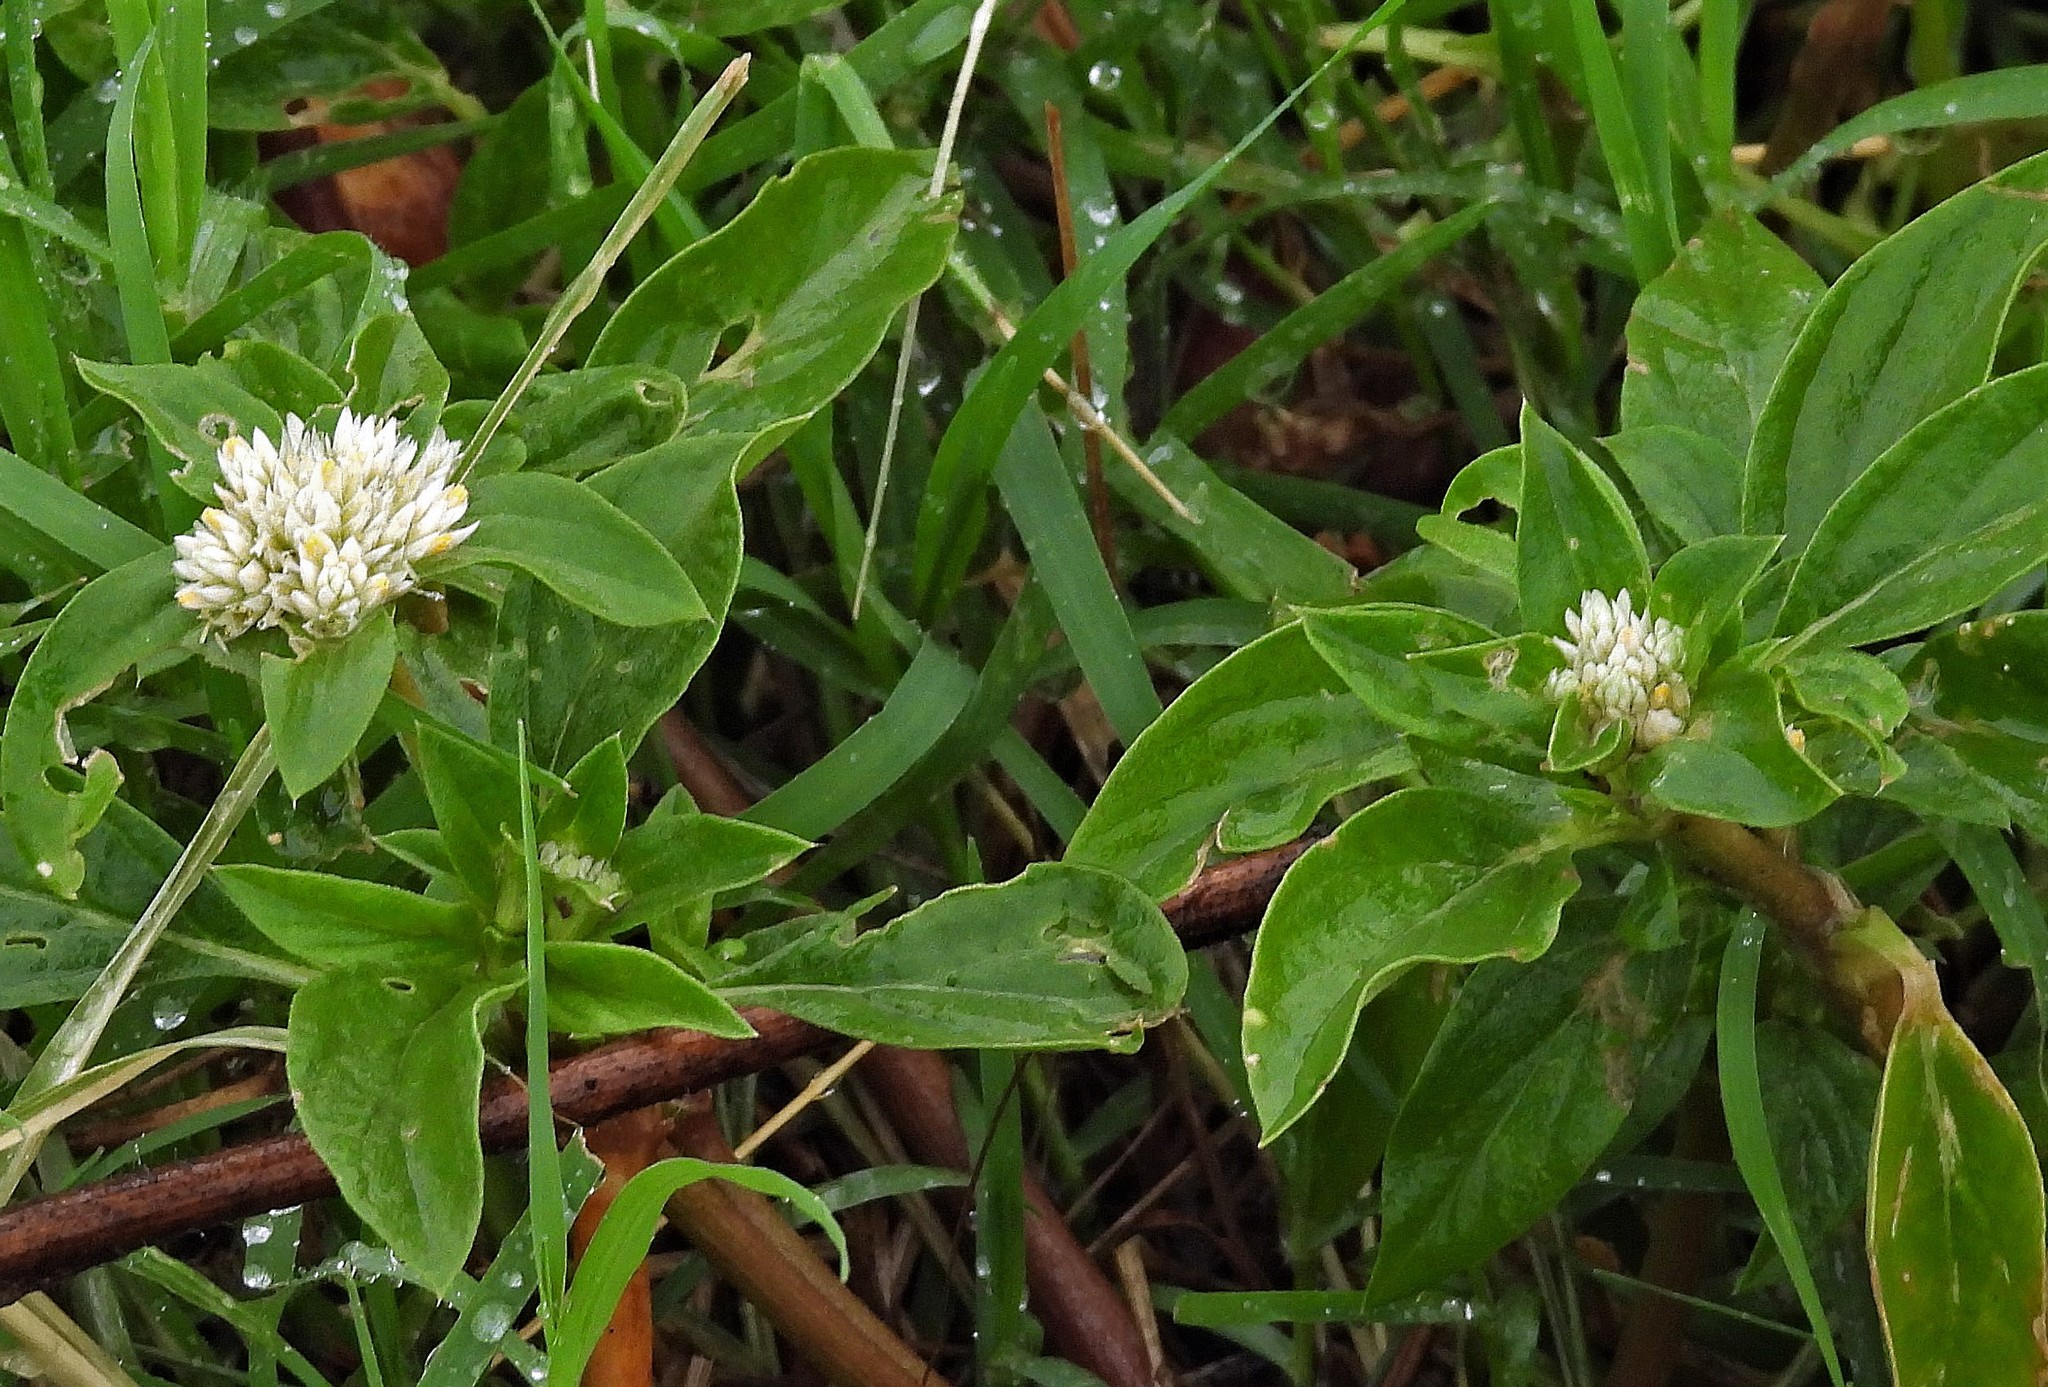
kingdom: Plantae
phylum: Tracheophyta
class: Magnoliopsida
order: Caryophyllales
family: Amaranthaceae
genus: Gomphrena
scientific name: Gomphrena martiana
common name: Globe amaranth
